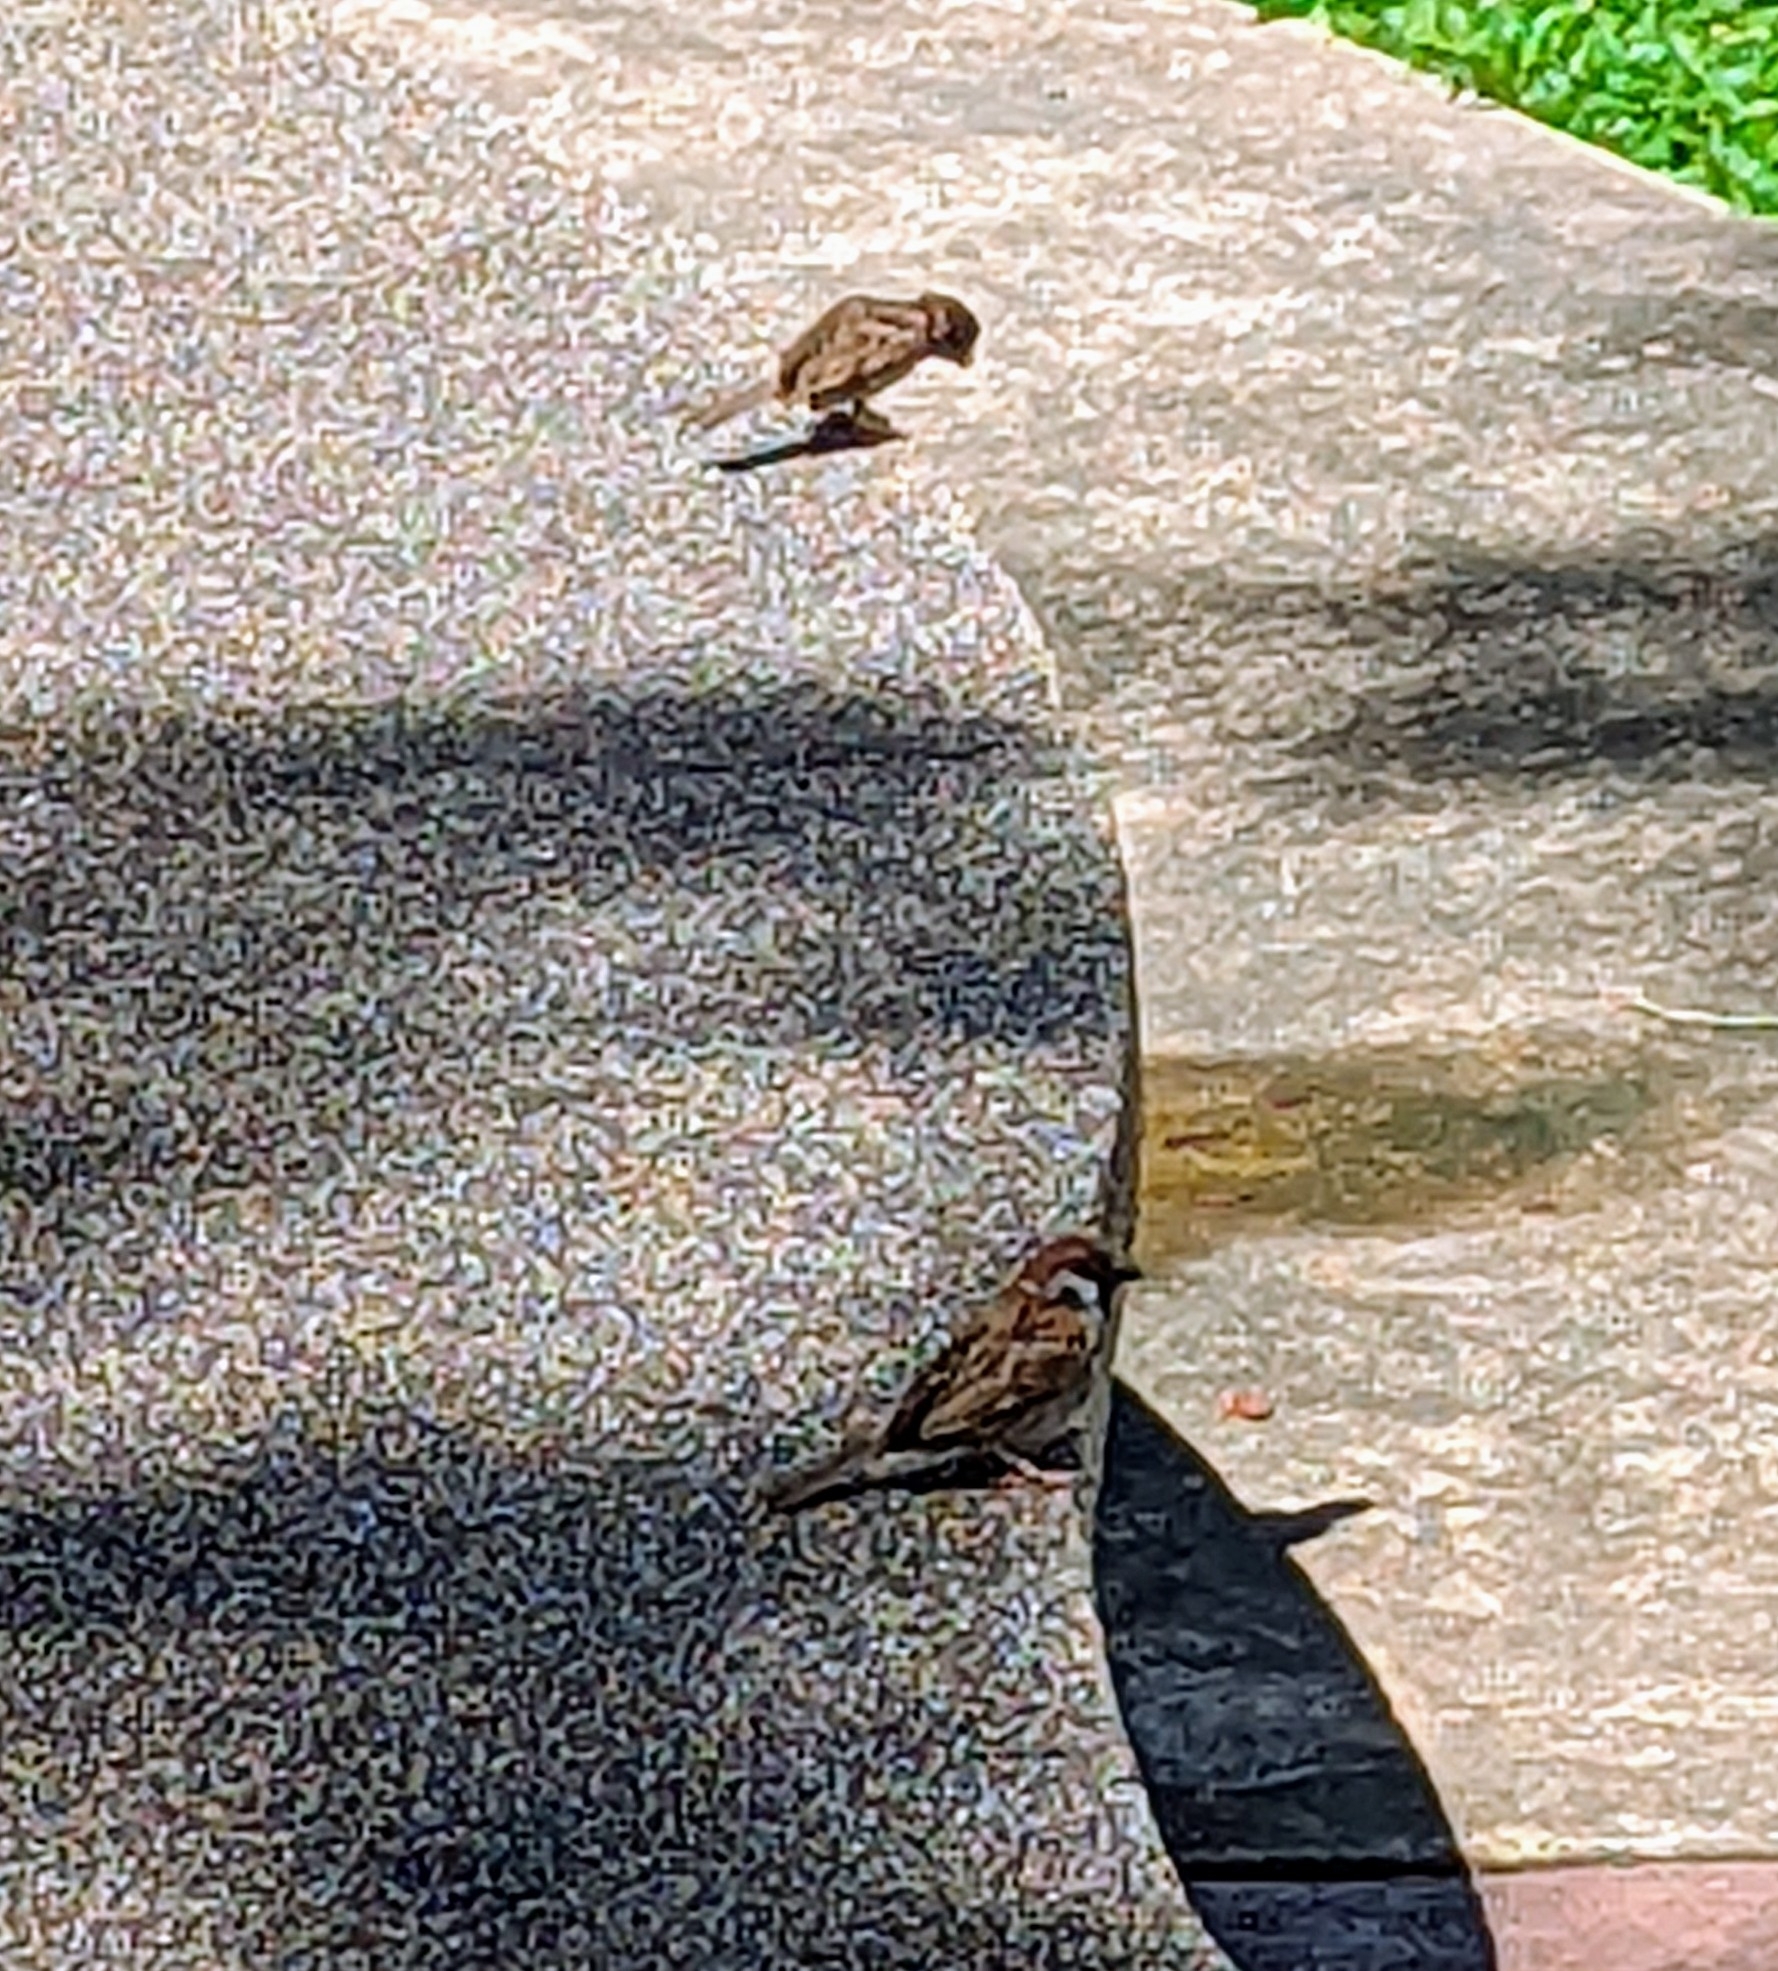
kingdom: Animalia
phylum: Chordata
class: Aves
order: Passeriformes
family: Passeridae
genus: Passer
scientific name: Passer montanus
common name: Eurasian tree sparrow
